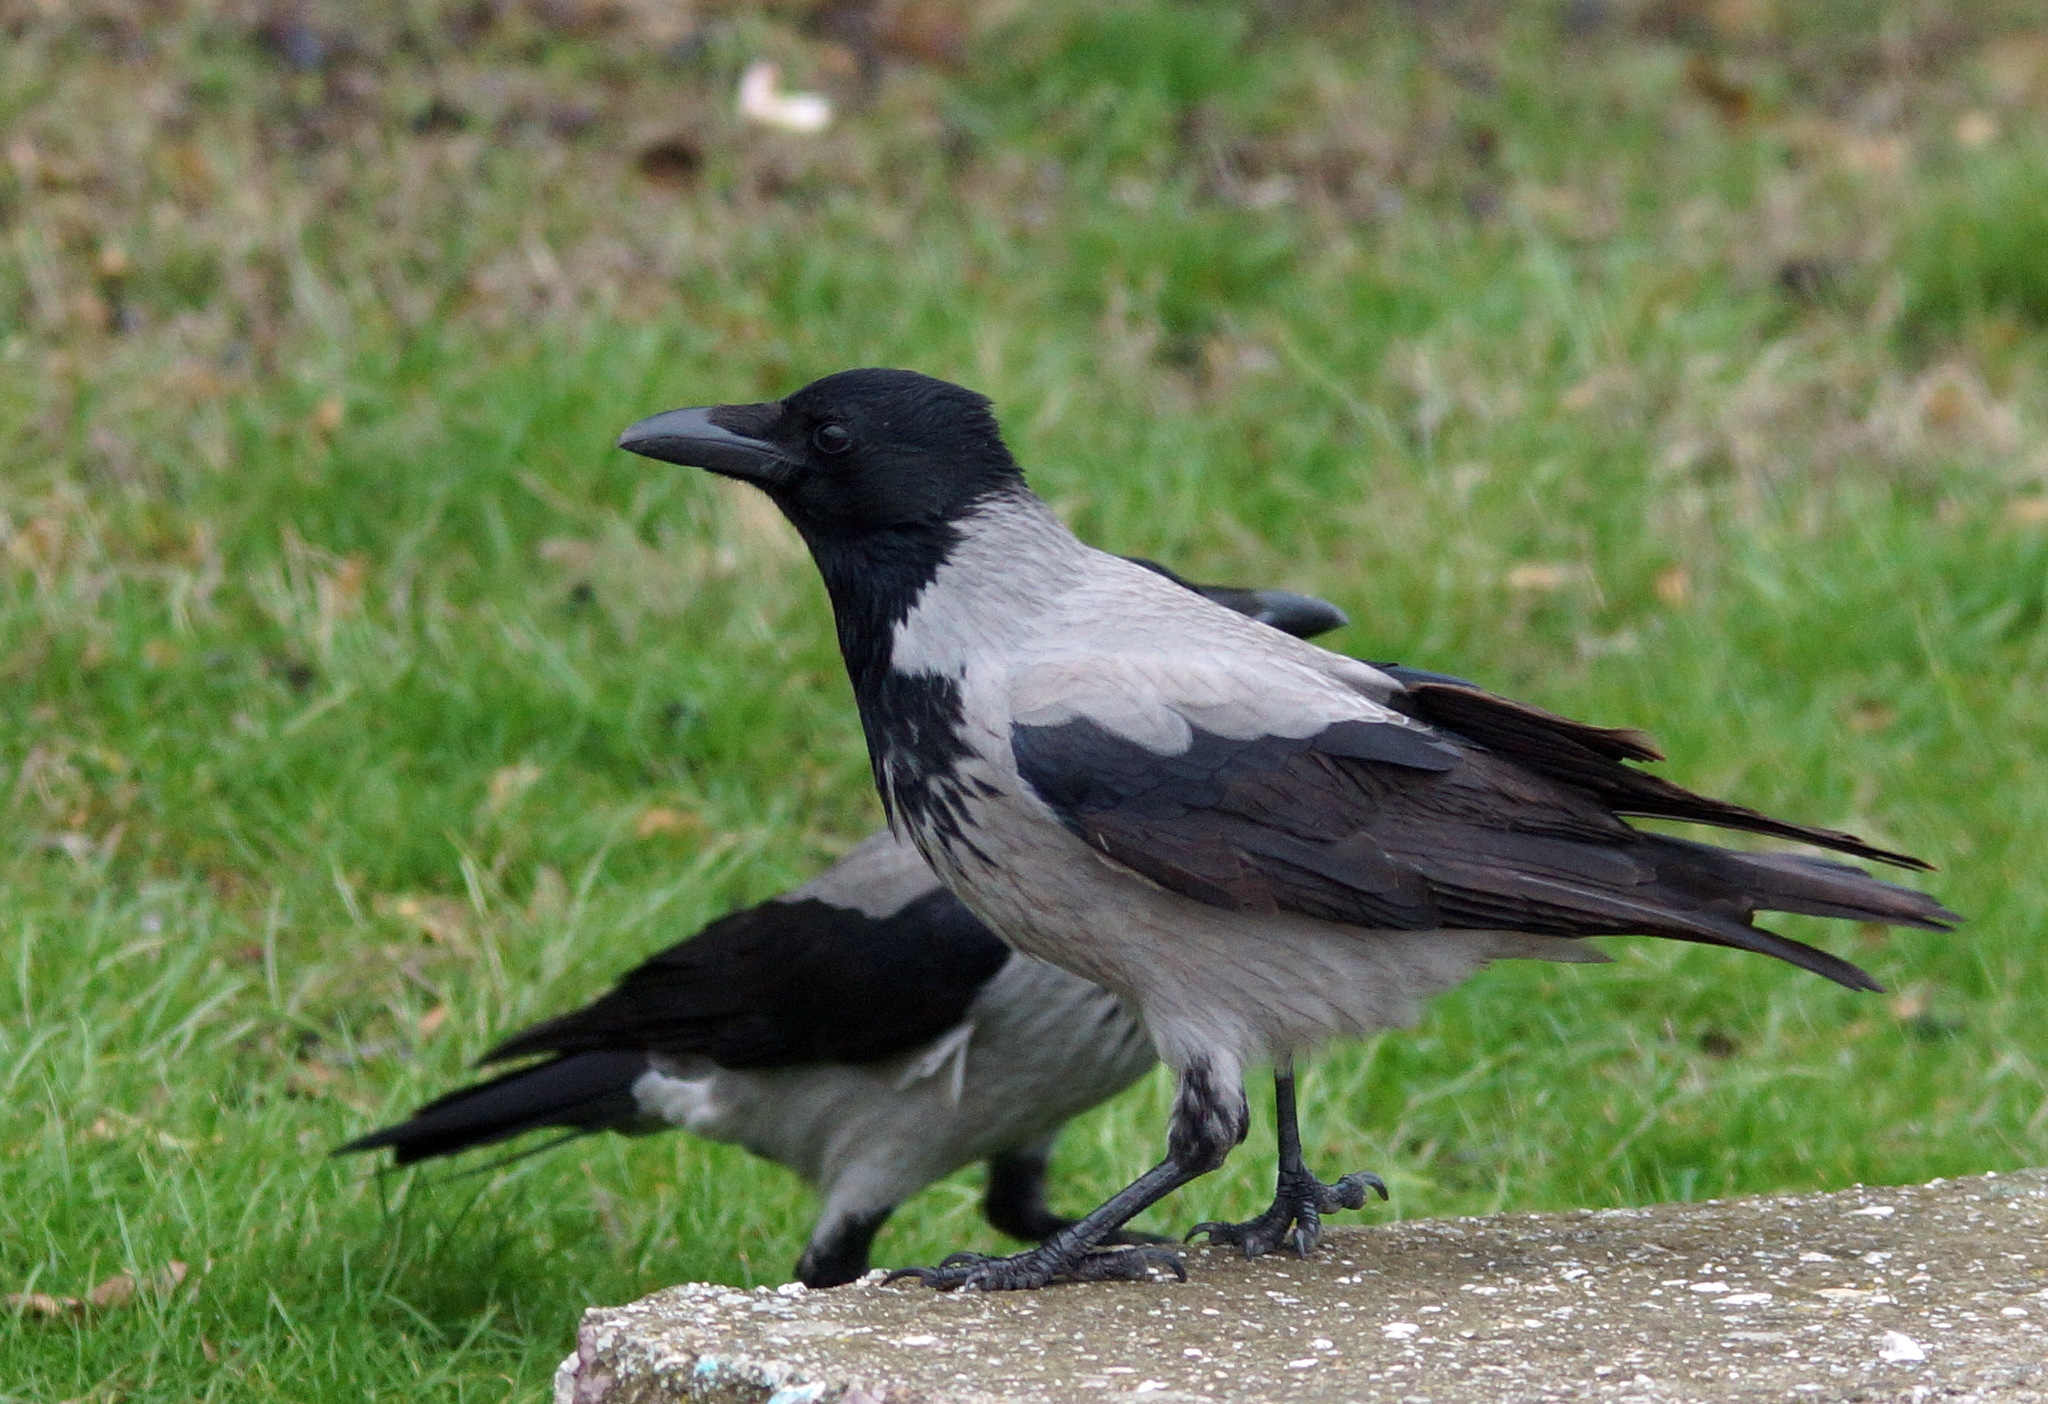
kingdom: Animalia
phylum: Chordata
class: Aves
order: Passeriformes
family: Corvidae
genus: Corvus
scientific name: Corvus cornix
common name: Hooded crow
